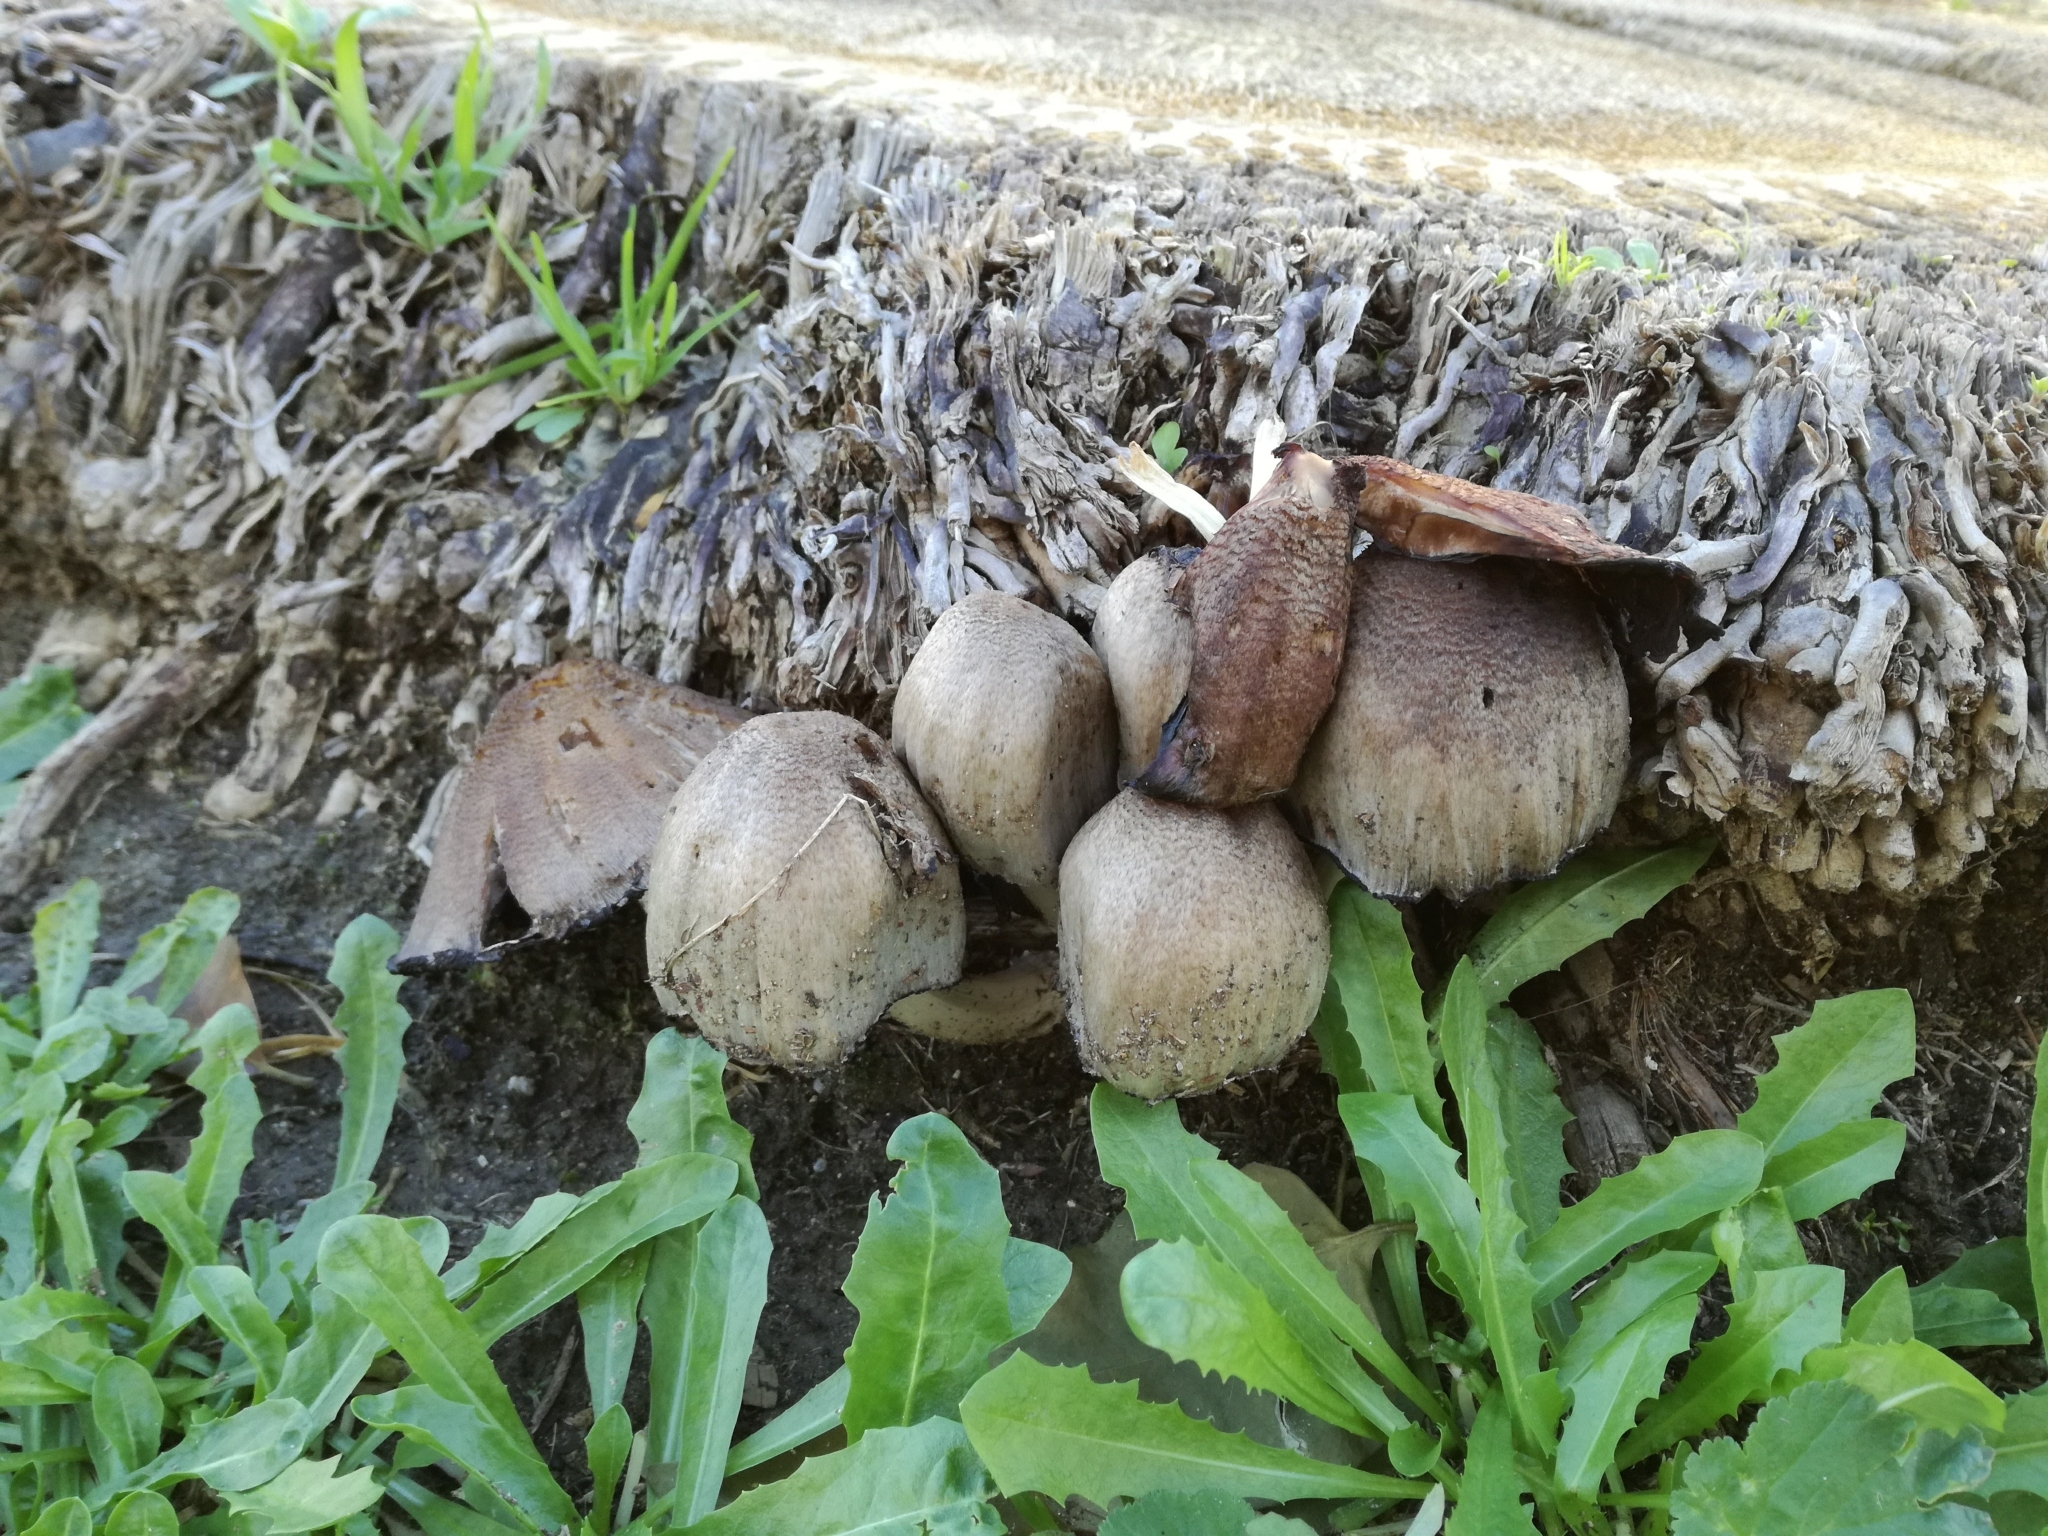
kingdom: Fungi
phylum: Basidiomycota
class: Agaricomycetes
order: Agaricales
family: Psathyrellaceae
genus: Coprinopsis
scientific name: Coprinopsis atramentaria
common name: Common ink-cap
